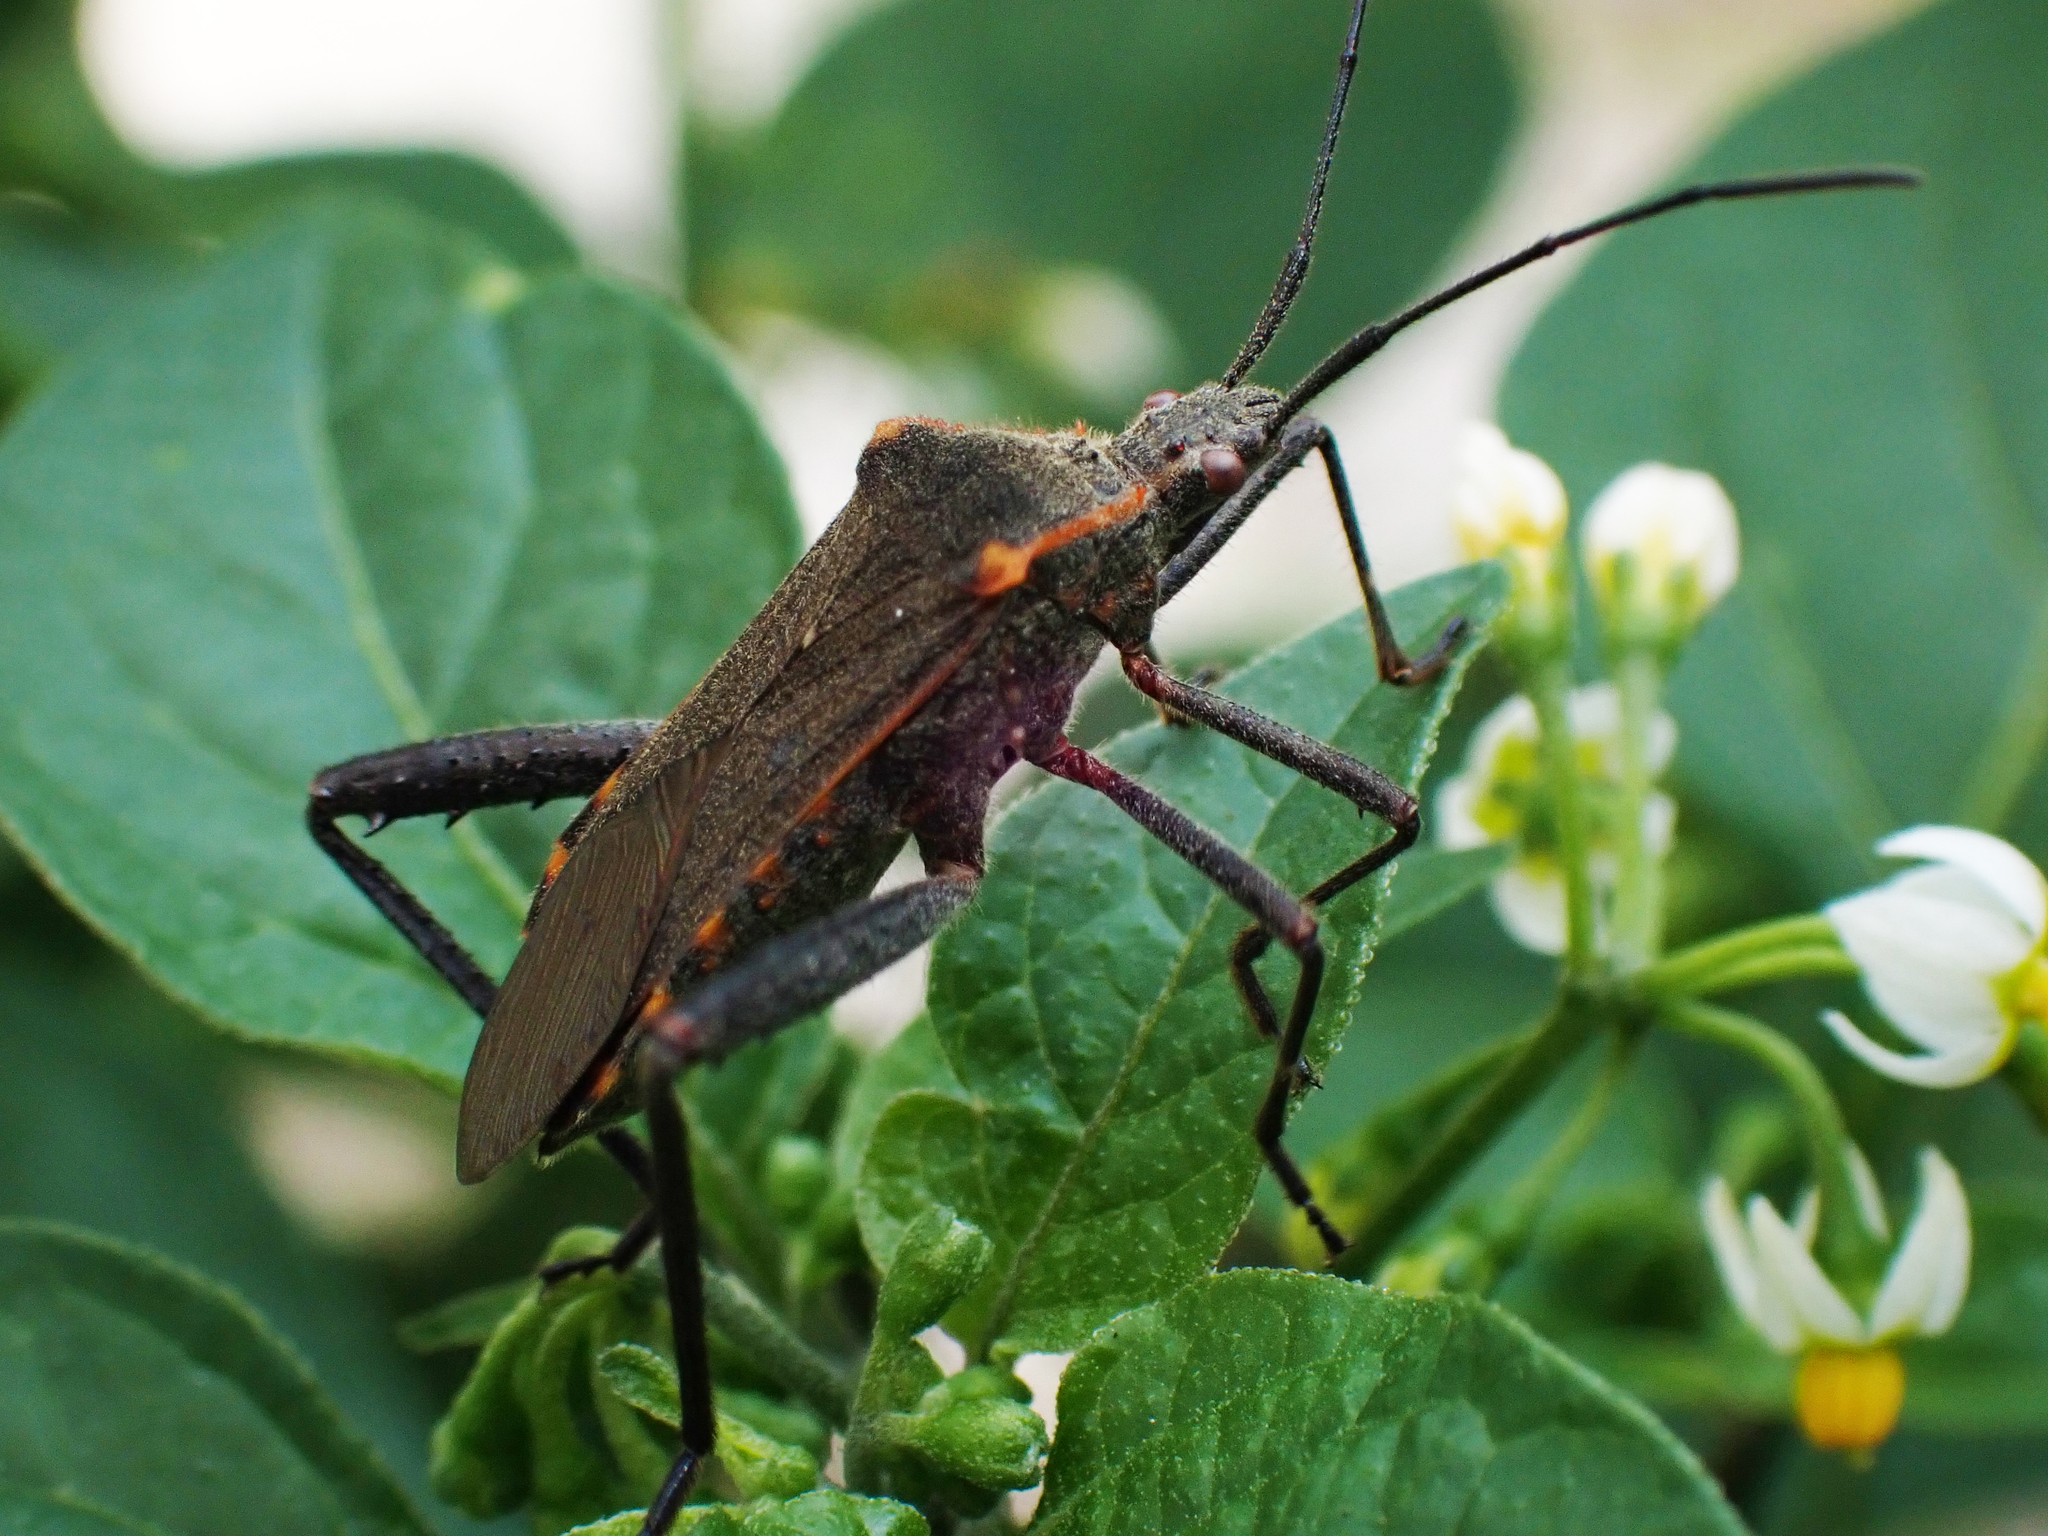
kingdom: Animalia
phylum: Arthropoda
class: Insecta
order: Hemiptera
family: Coreidae
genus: Phthiacnemia
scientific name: Phthiacnemia picta
